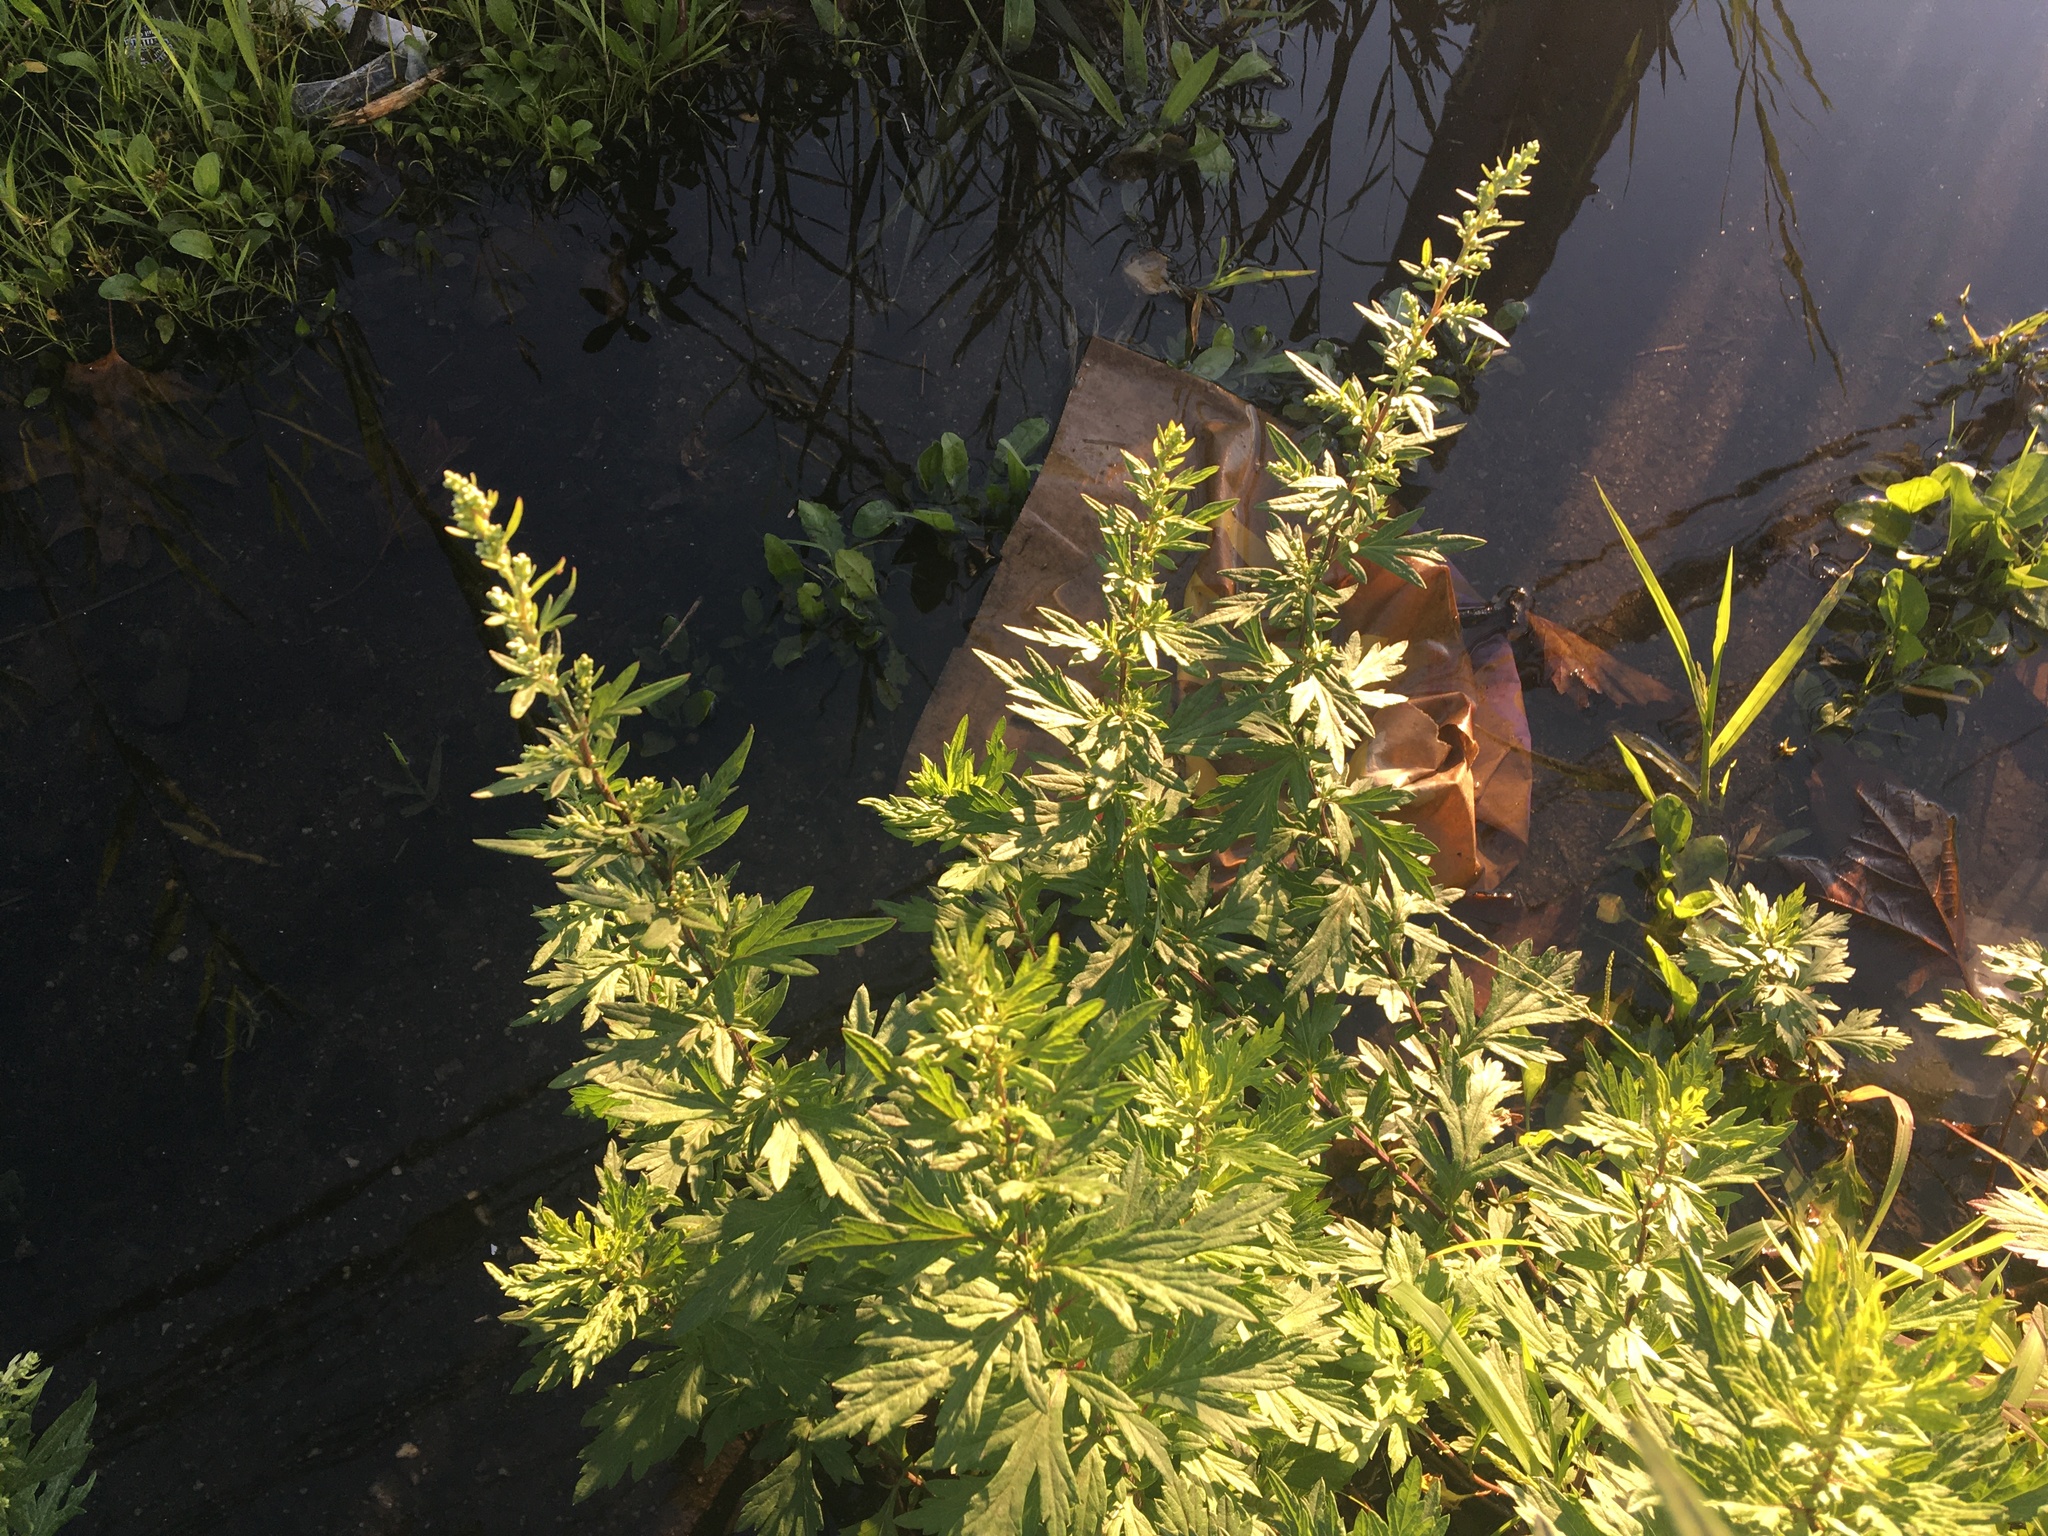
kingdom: Plantae
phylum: Tracheophyta
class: Magnoliopsida
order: Asterales
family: Asteraceae
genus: Artemisia
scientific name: Artemisia vulgaris
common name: Mugwort
